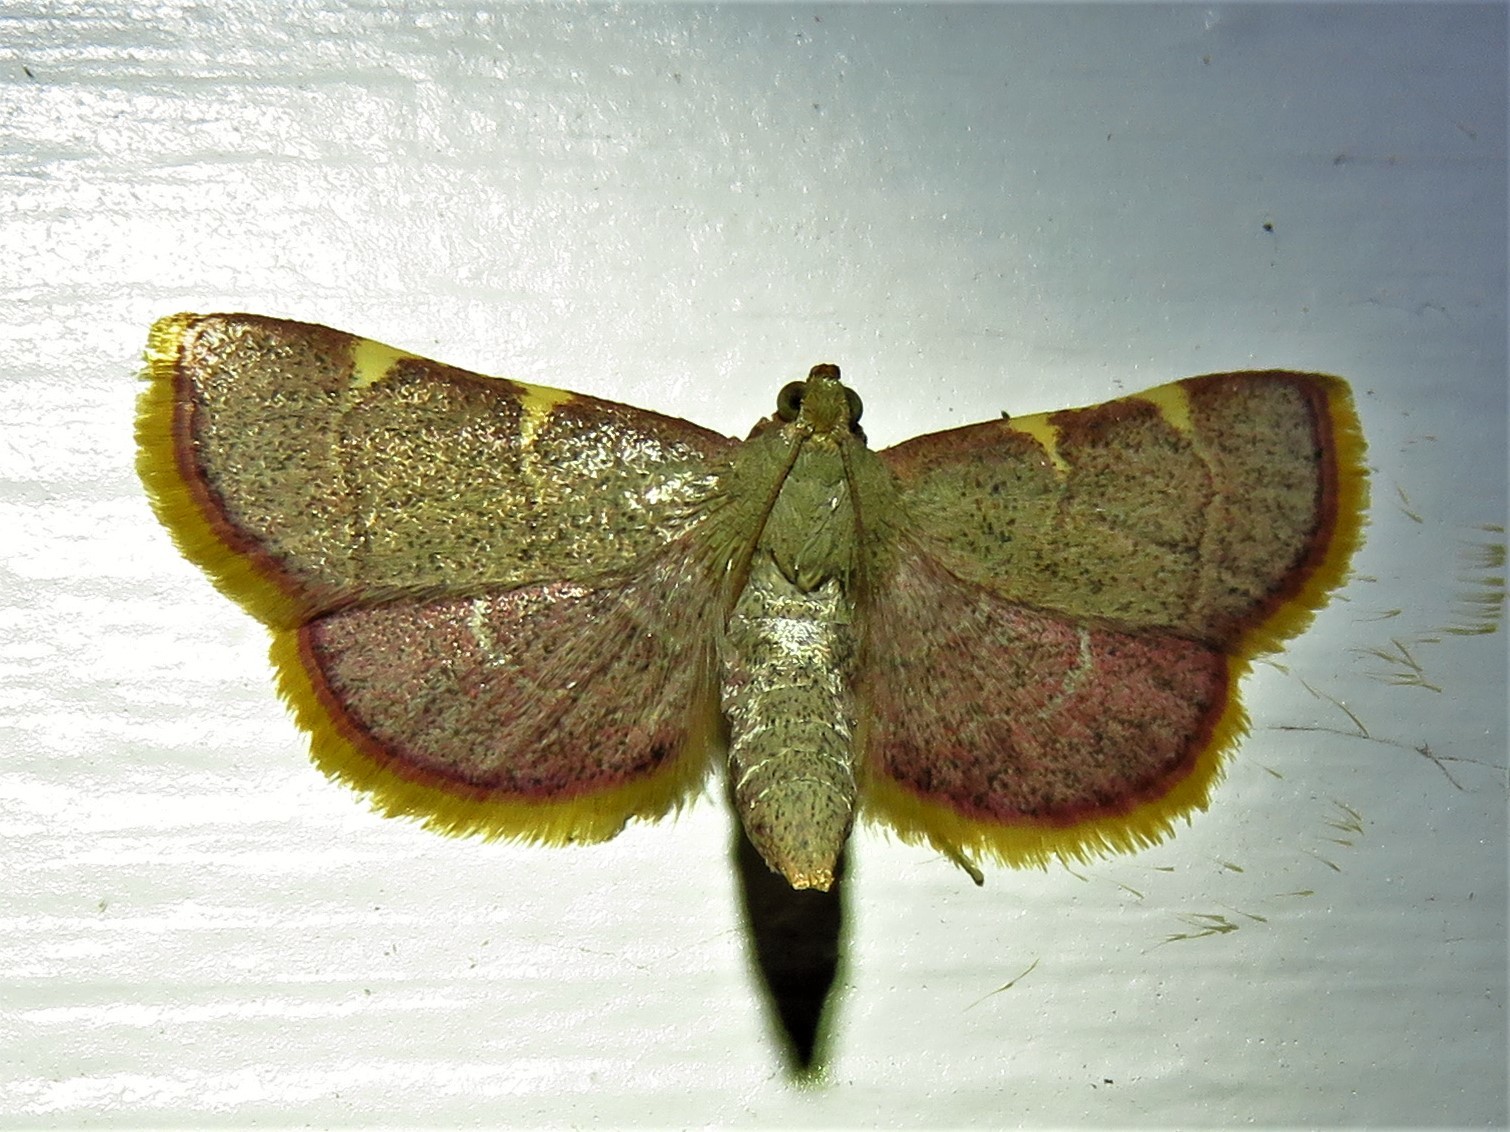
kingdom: Animalia
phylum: Arthropoda
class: Insecta
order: Lepidoptera
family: Pyralidae
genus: Hypsopygia
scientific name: Hypsopygia olinalis
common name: Yellow-fringed dolichomia moth
